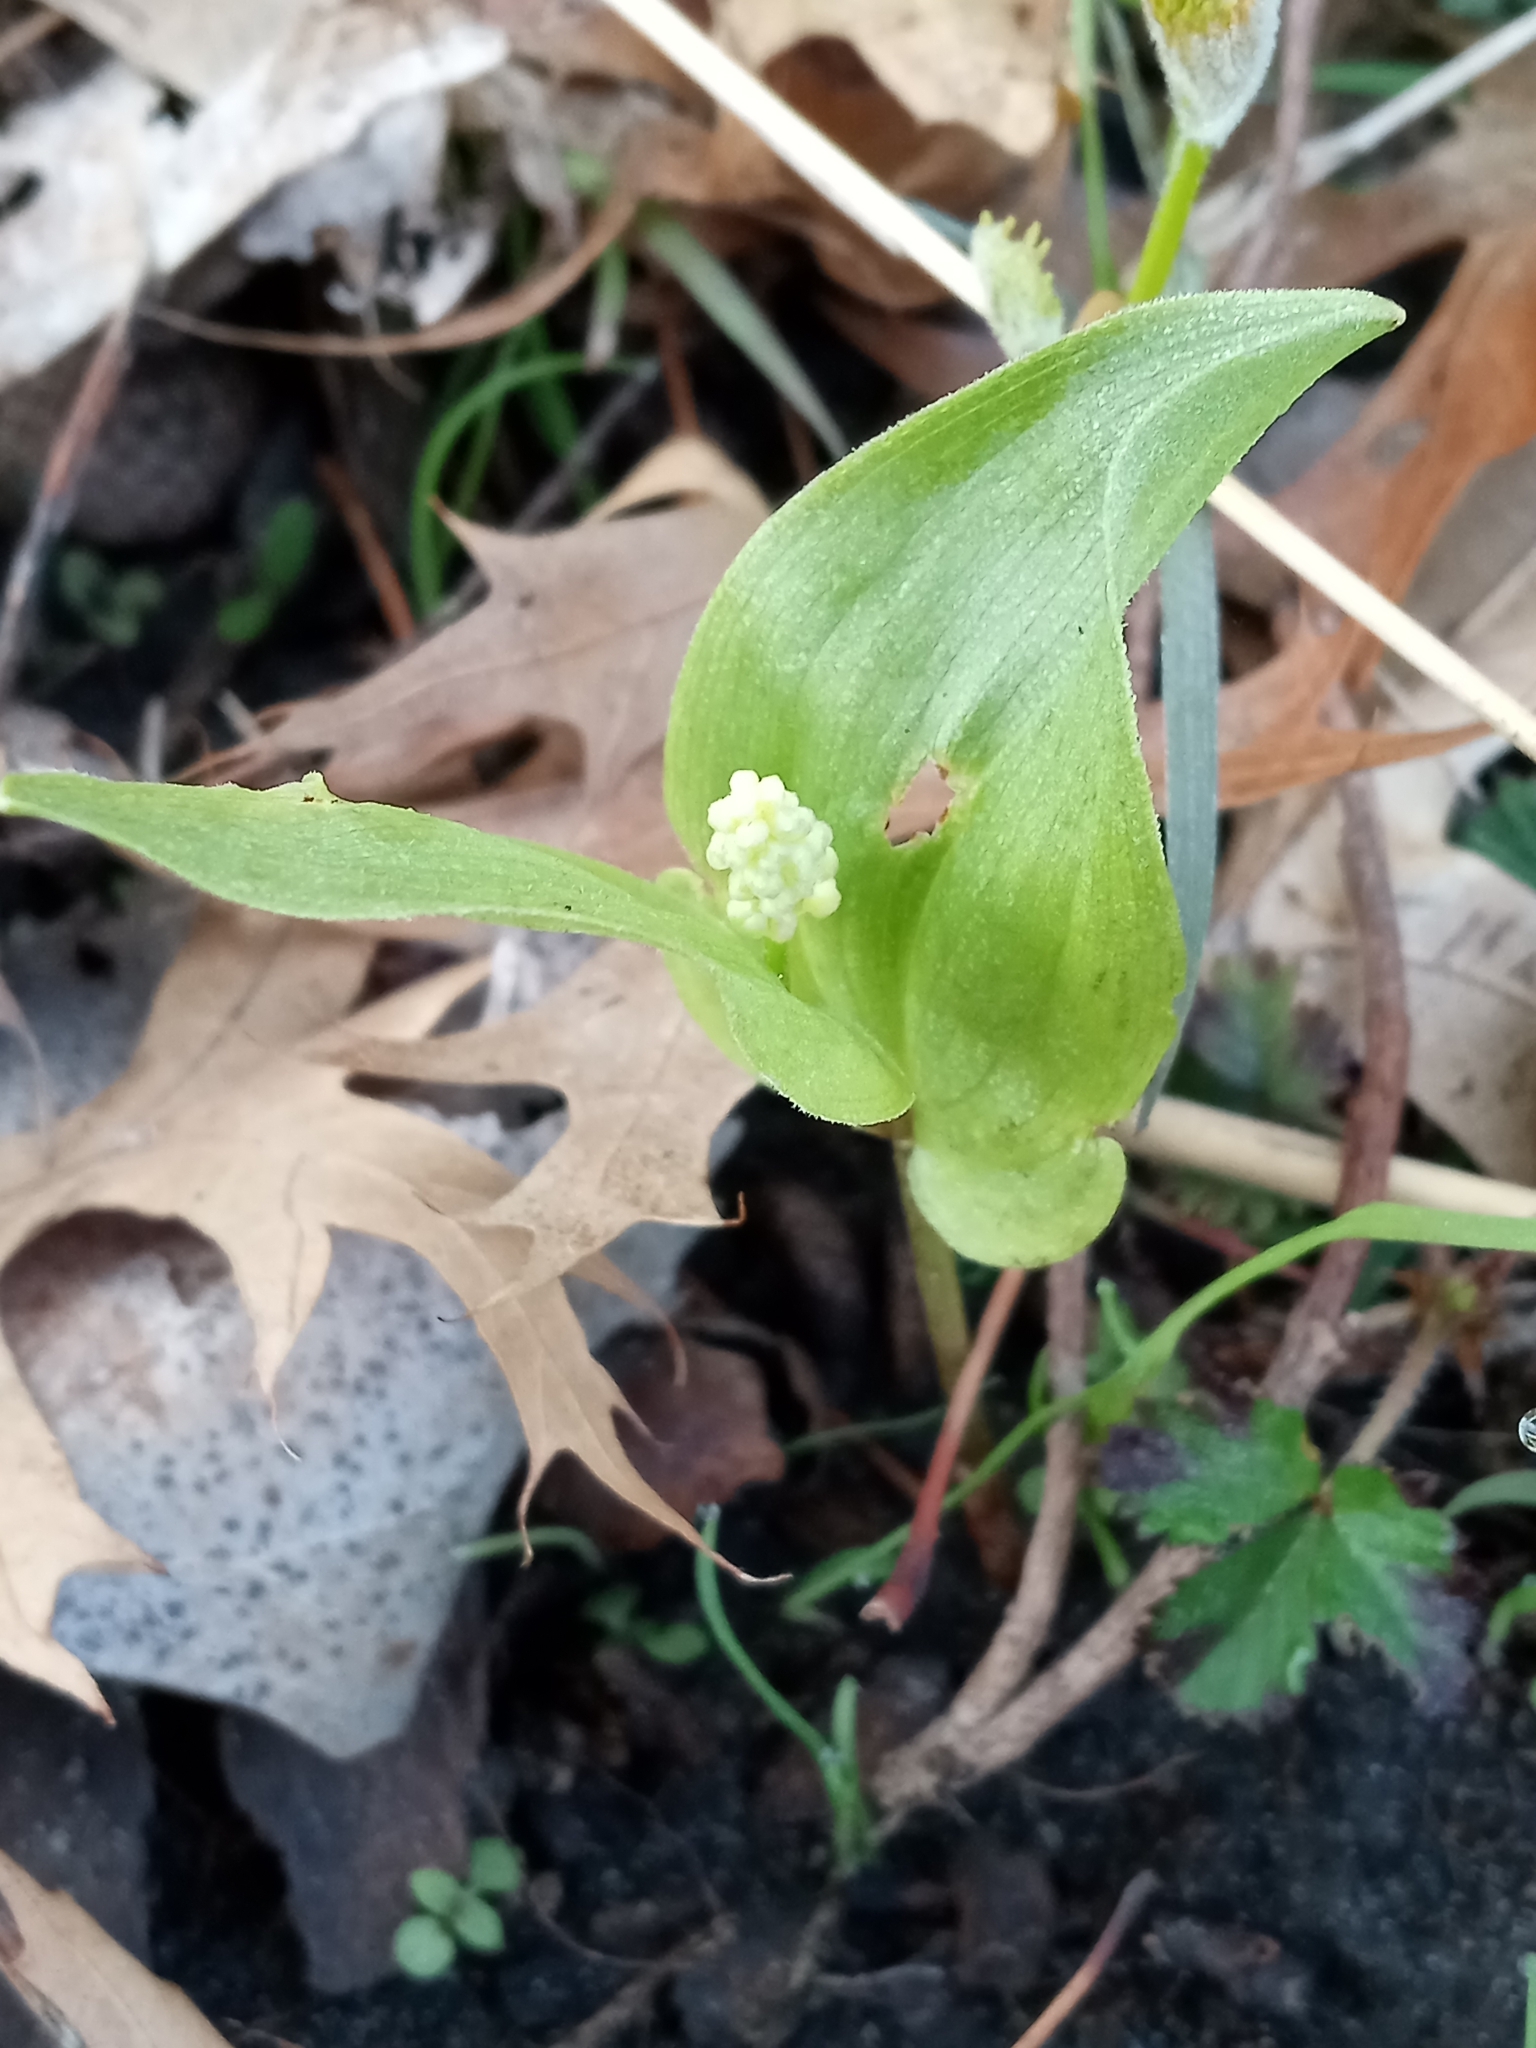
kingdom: Plantae
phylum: Tracheophyta
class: Liliopsida
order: Asparagales
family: Asparagaceae
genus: Maianthemum
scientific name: Maianthemum canadense
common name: False lily-of-the-valley
